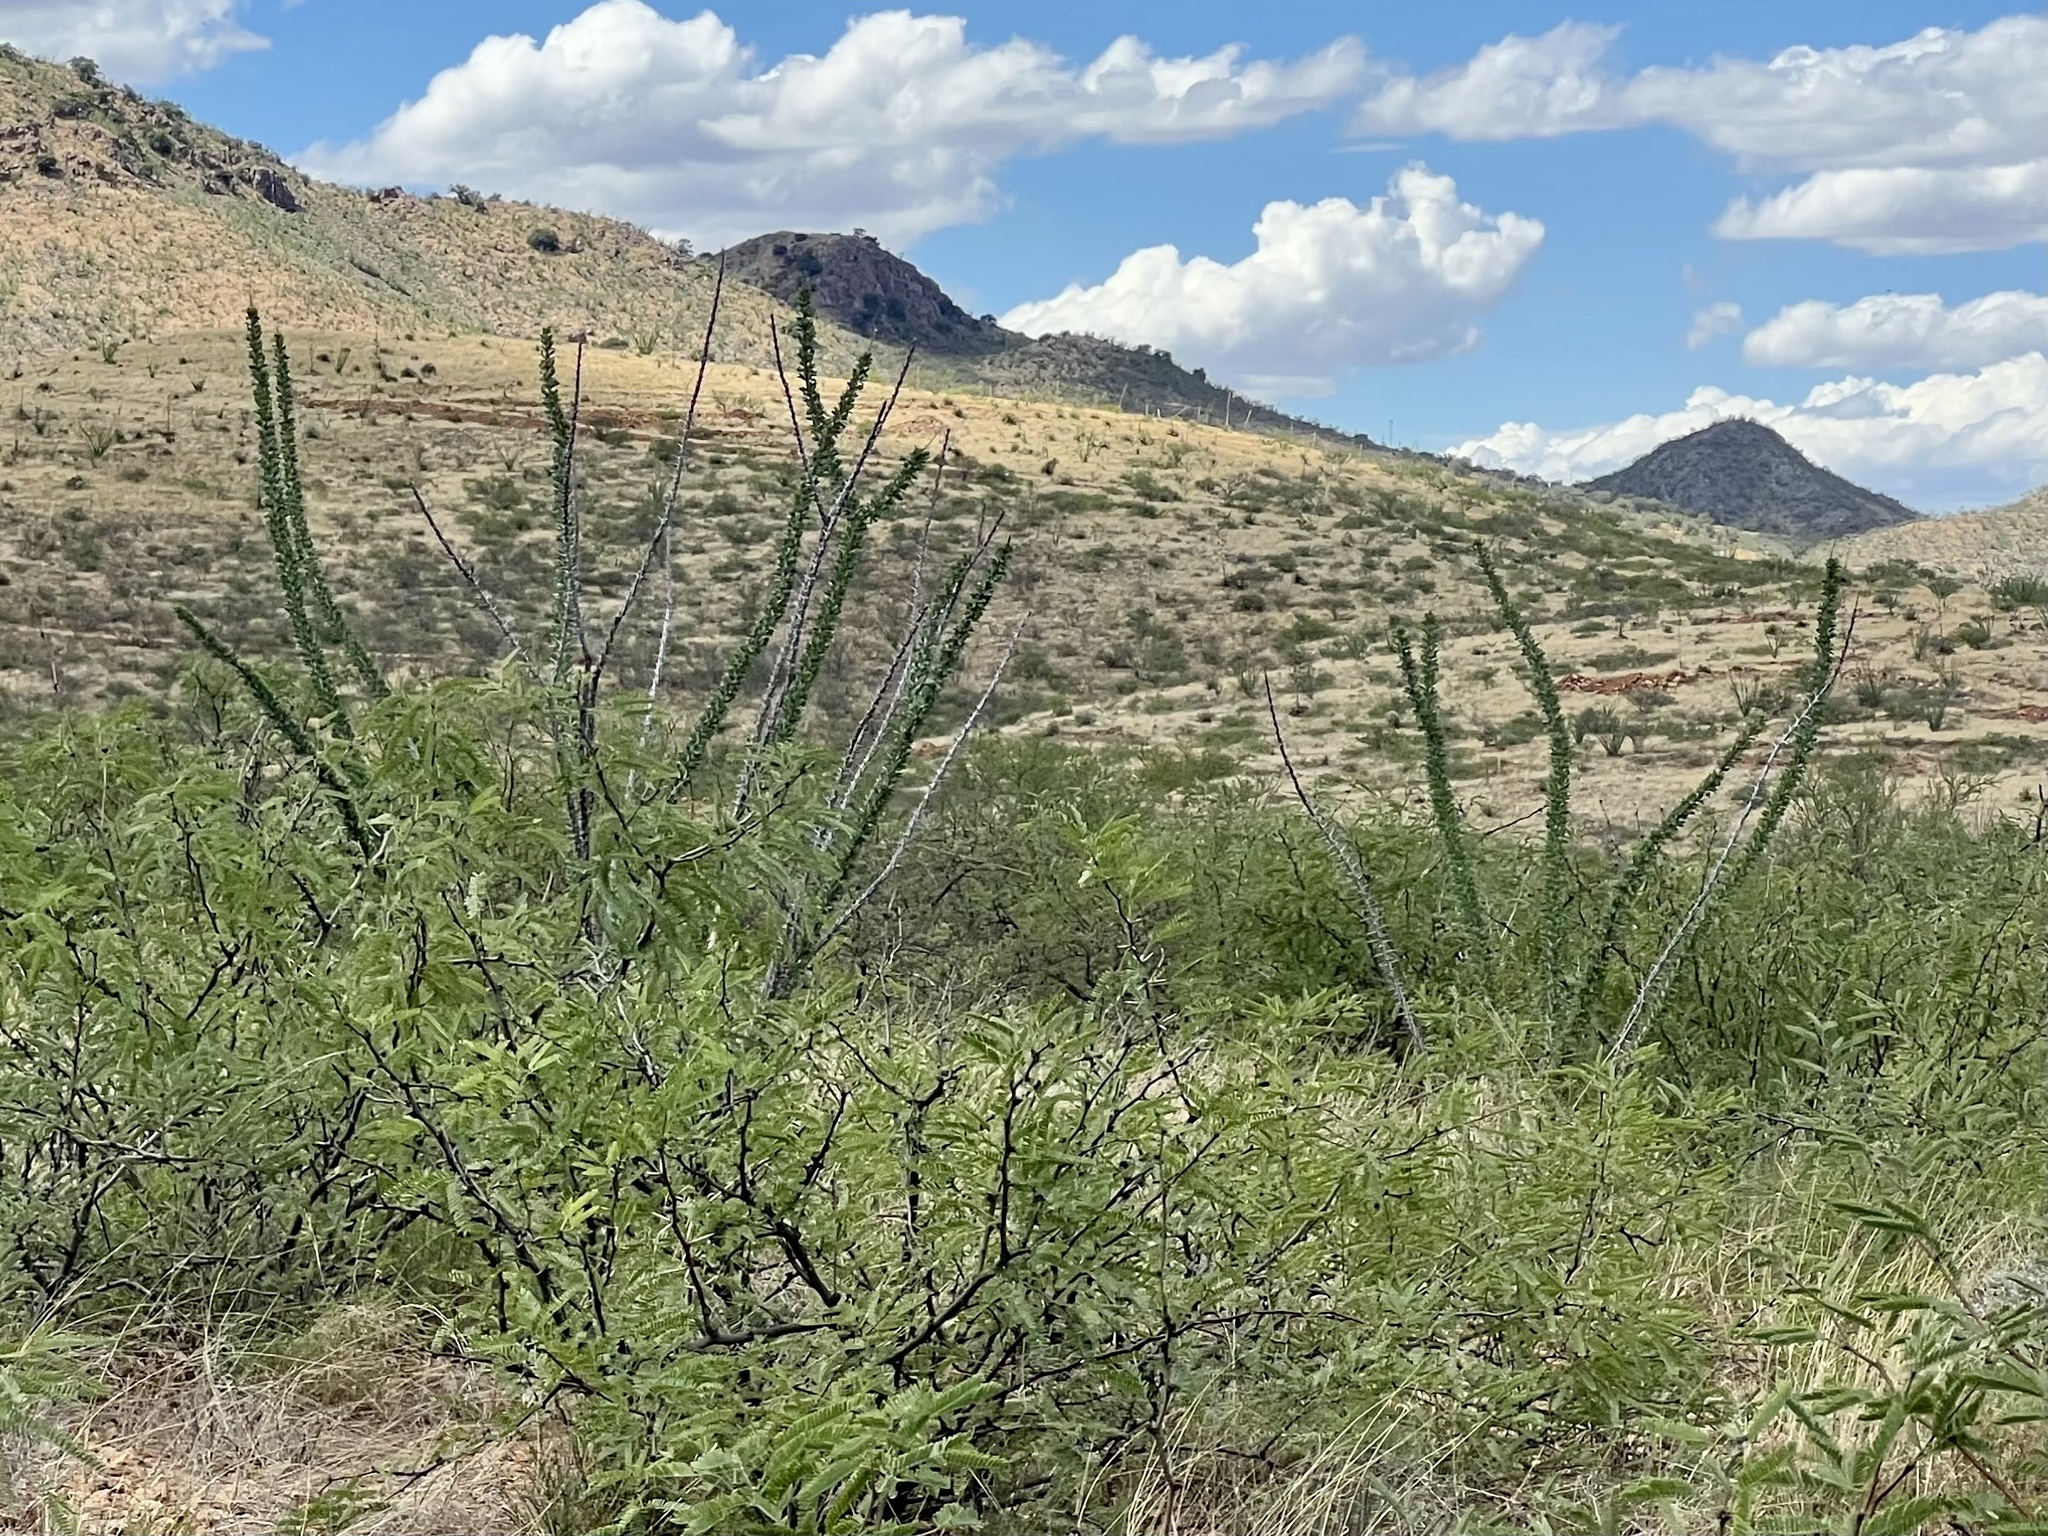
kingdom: Plantae
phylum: Tracheophyta
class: Magnoliopsida
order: Ericales
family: Fouquieriaceae
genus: Fouquieria
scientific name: Fouquieria splendens
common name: Vine-cactus
